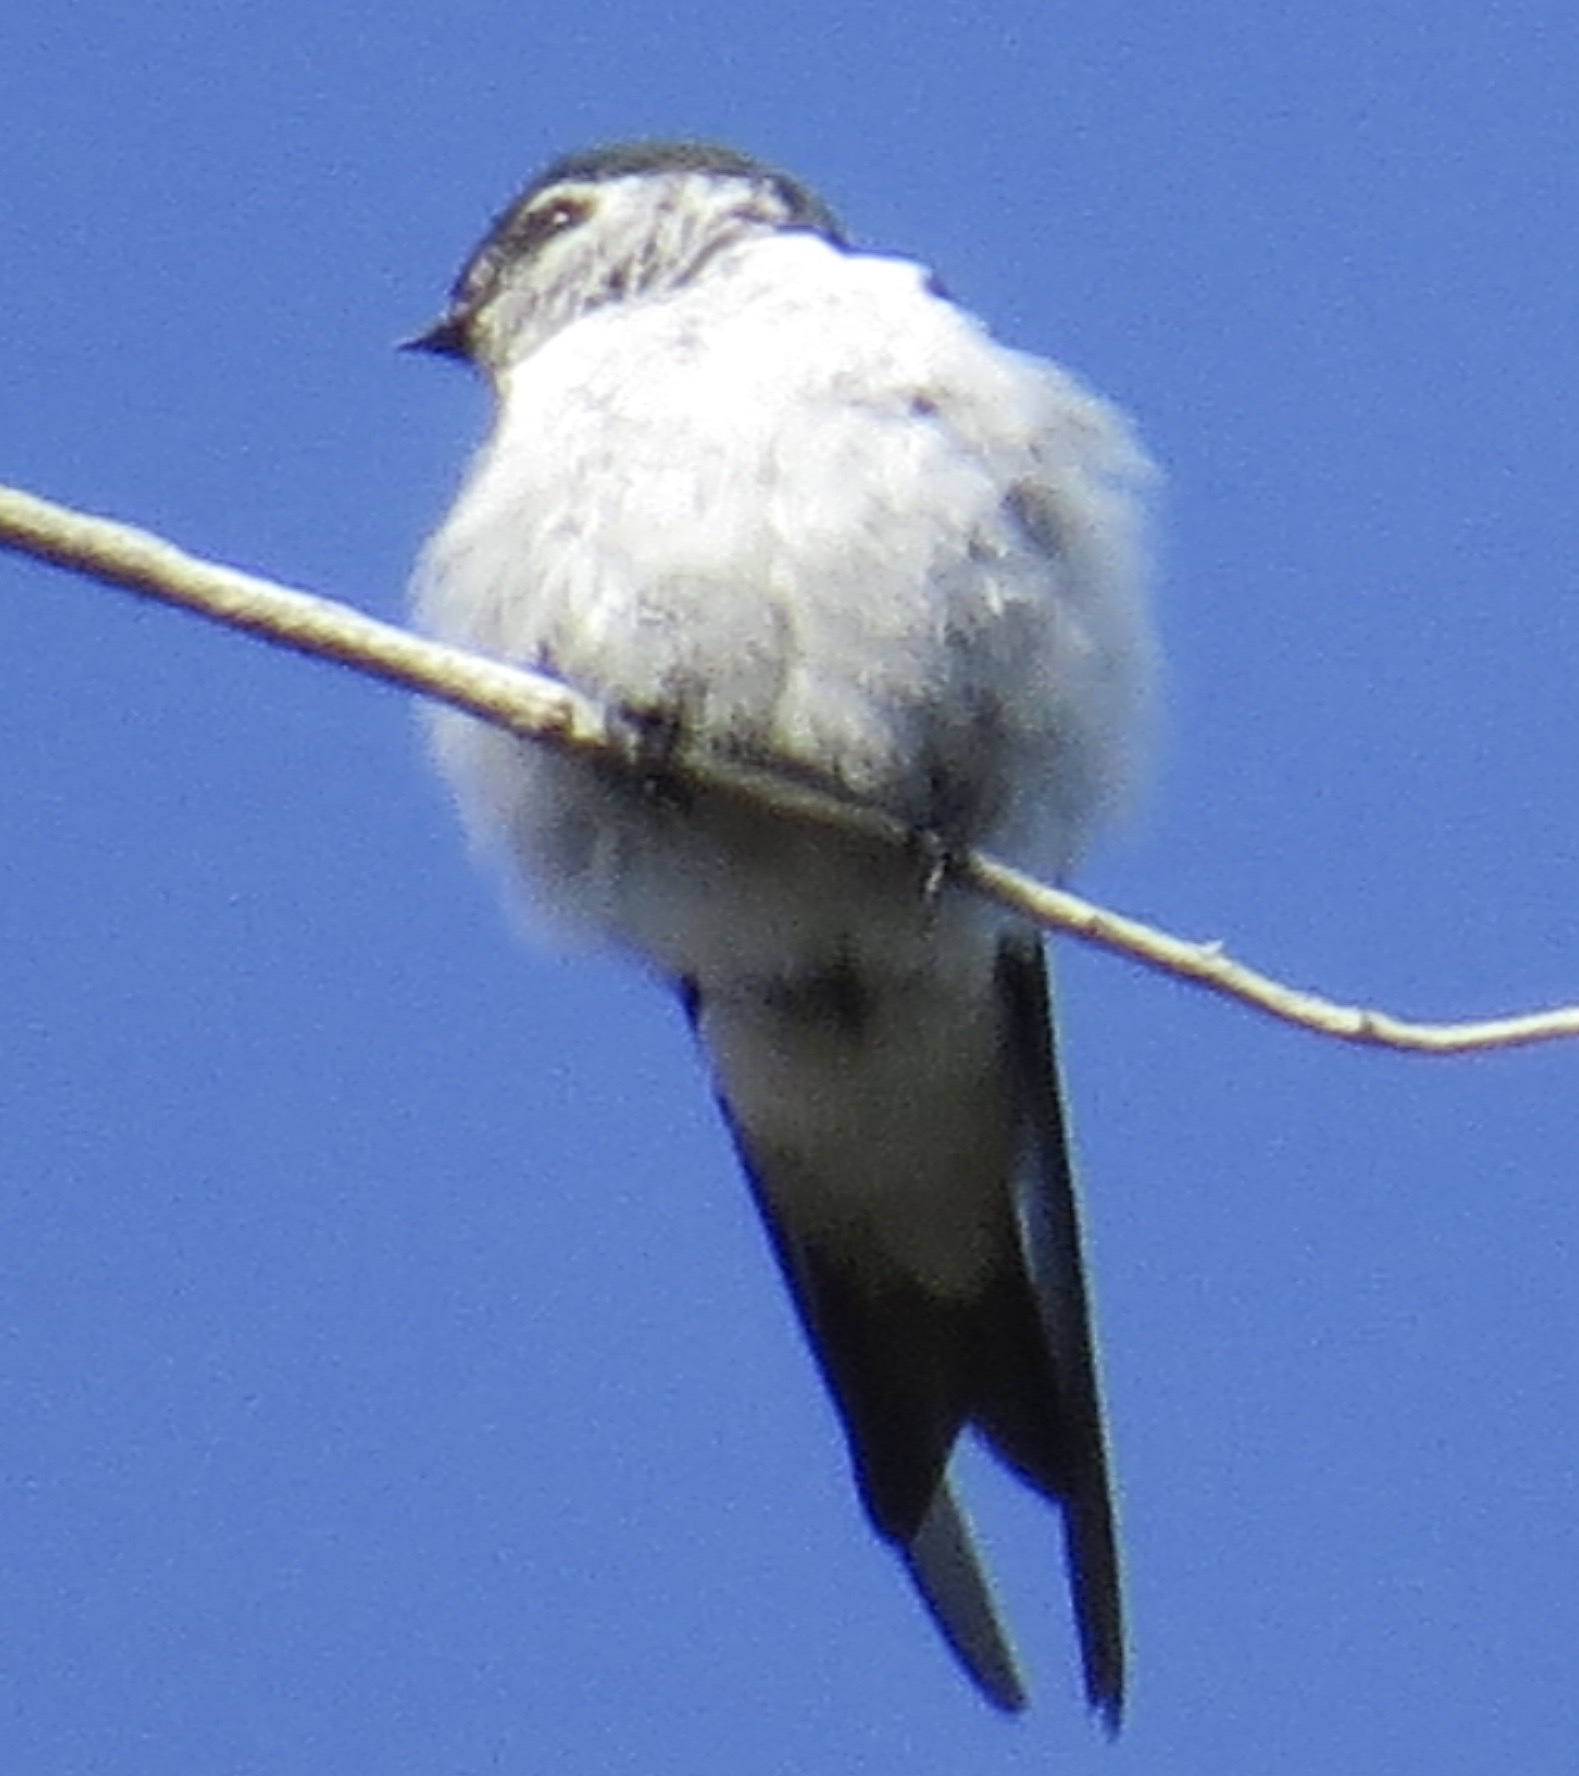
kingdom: Animalia
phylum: Chordata
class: Aves
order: Passeriformes
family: Hirundinidae
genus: Tachycineta
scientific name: Tachycineta thalassina
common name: Violet-green swallow
